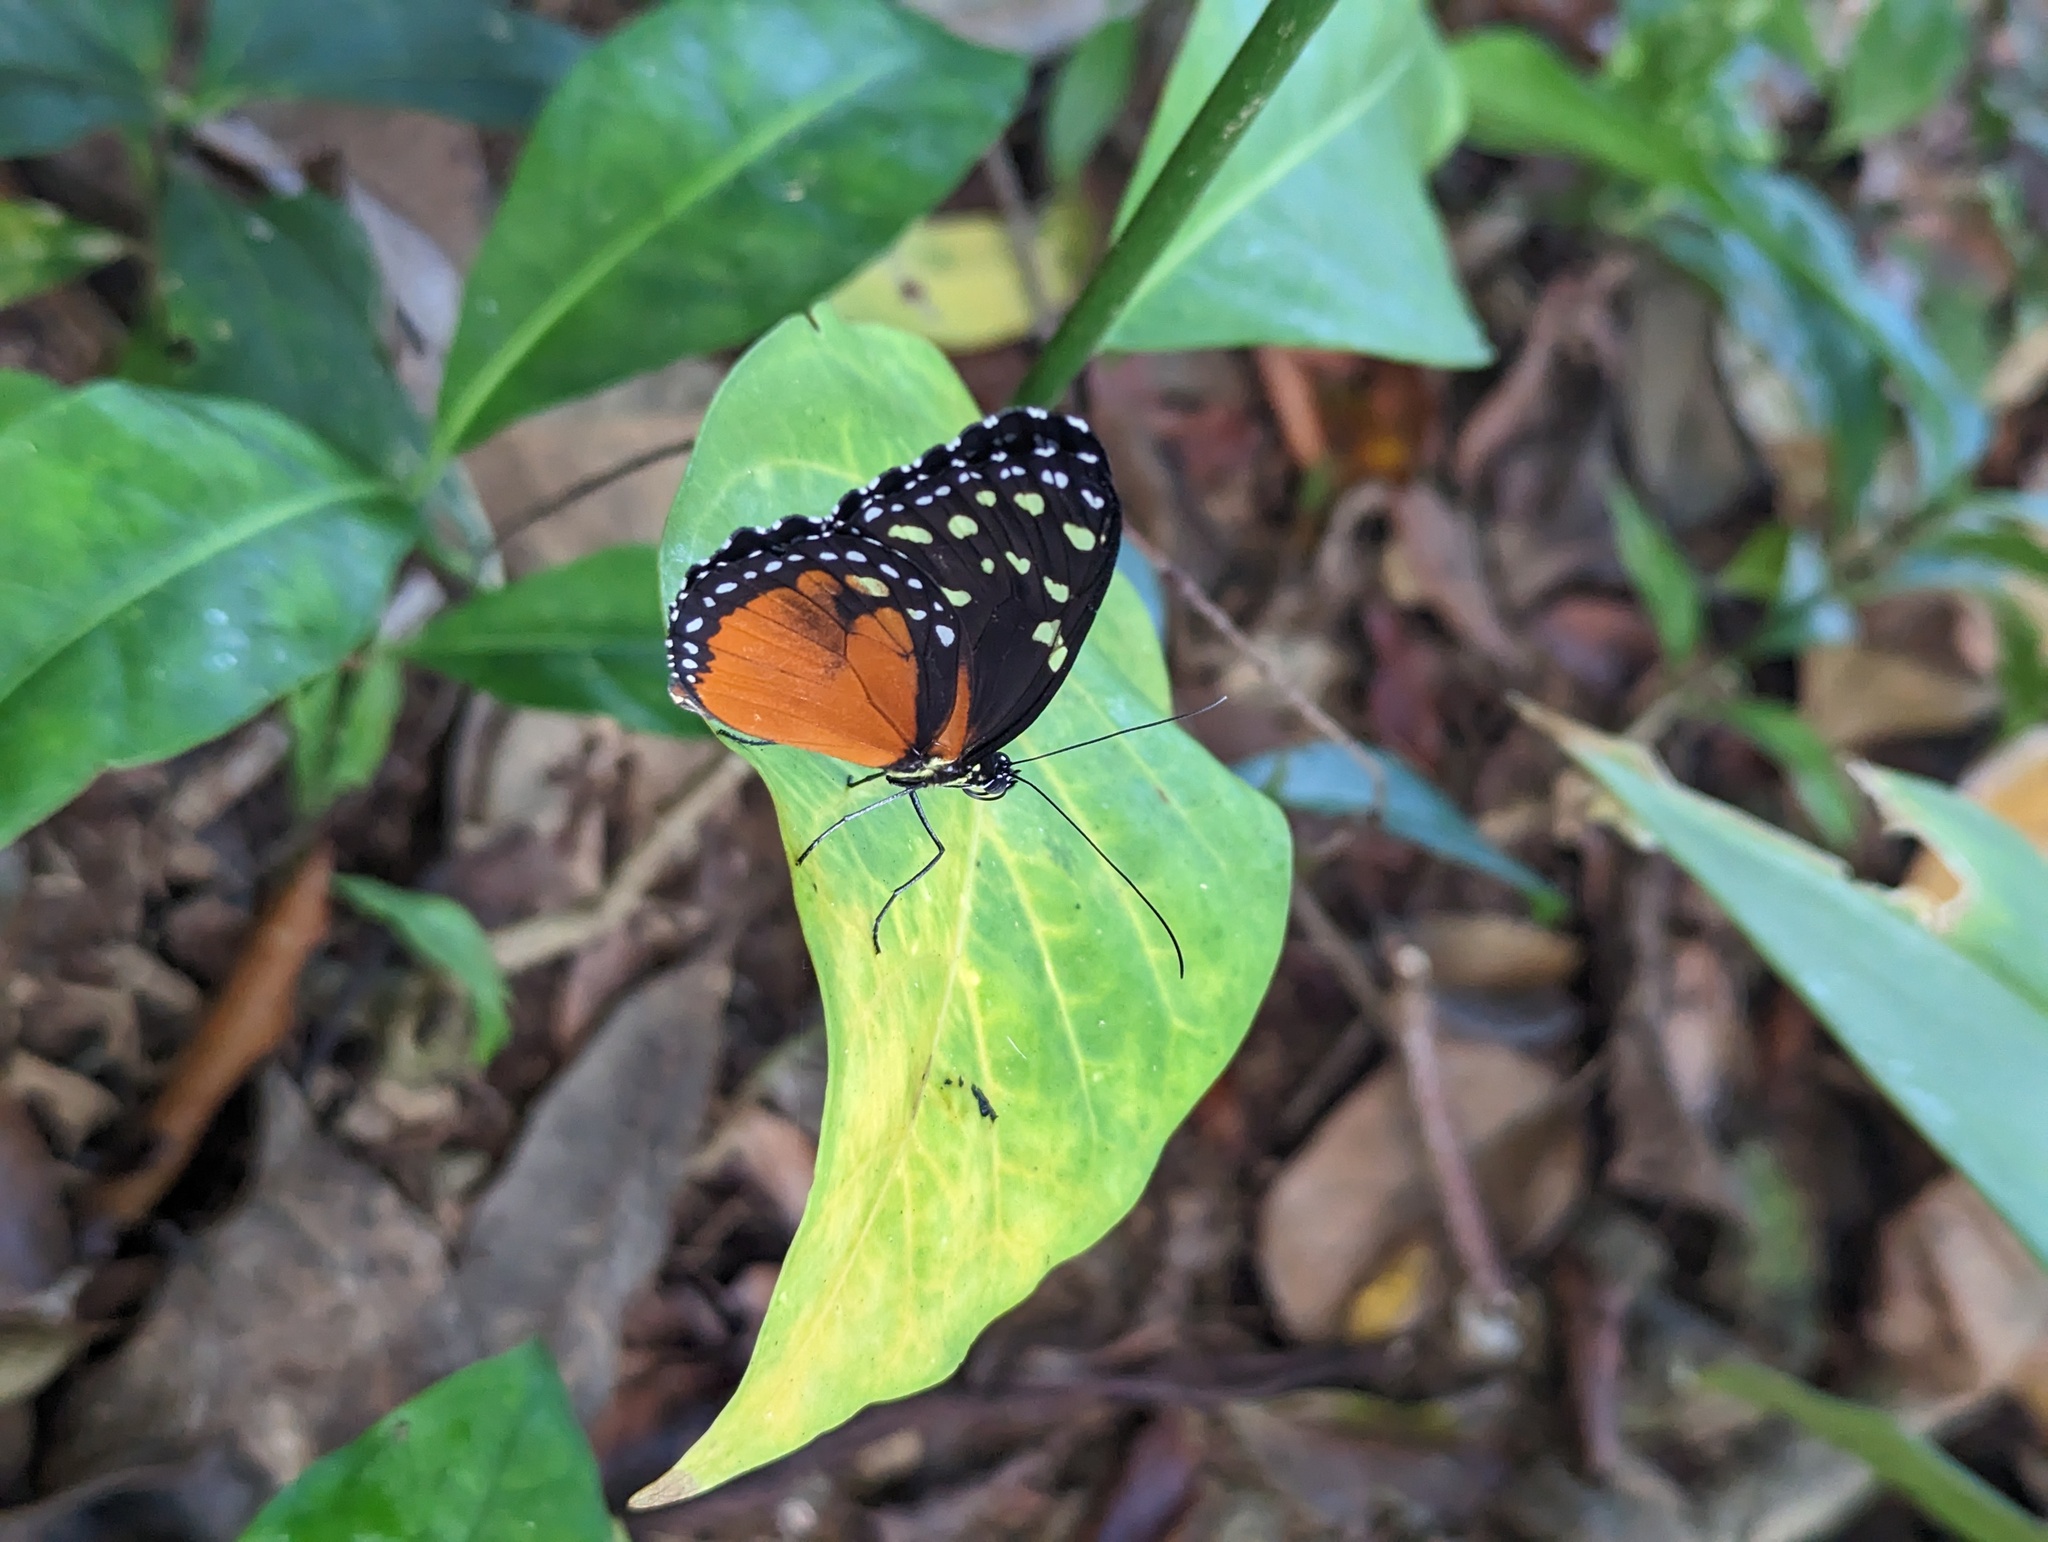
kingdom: Animalia
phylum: Arthropoda
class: Insecta
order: Lepidoptera
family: Nymphalidae
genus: Tithorea
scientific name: Tithorea tarricina
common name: Cream-spotted tigerwing
